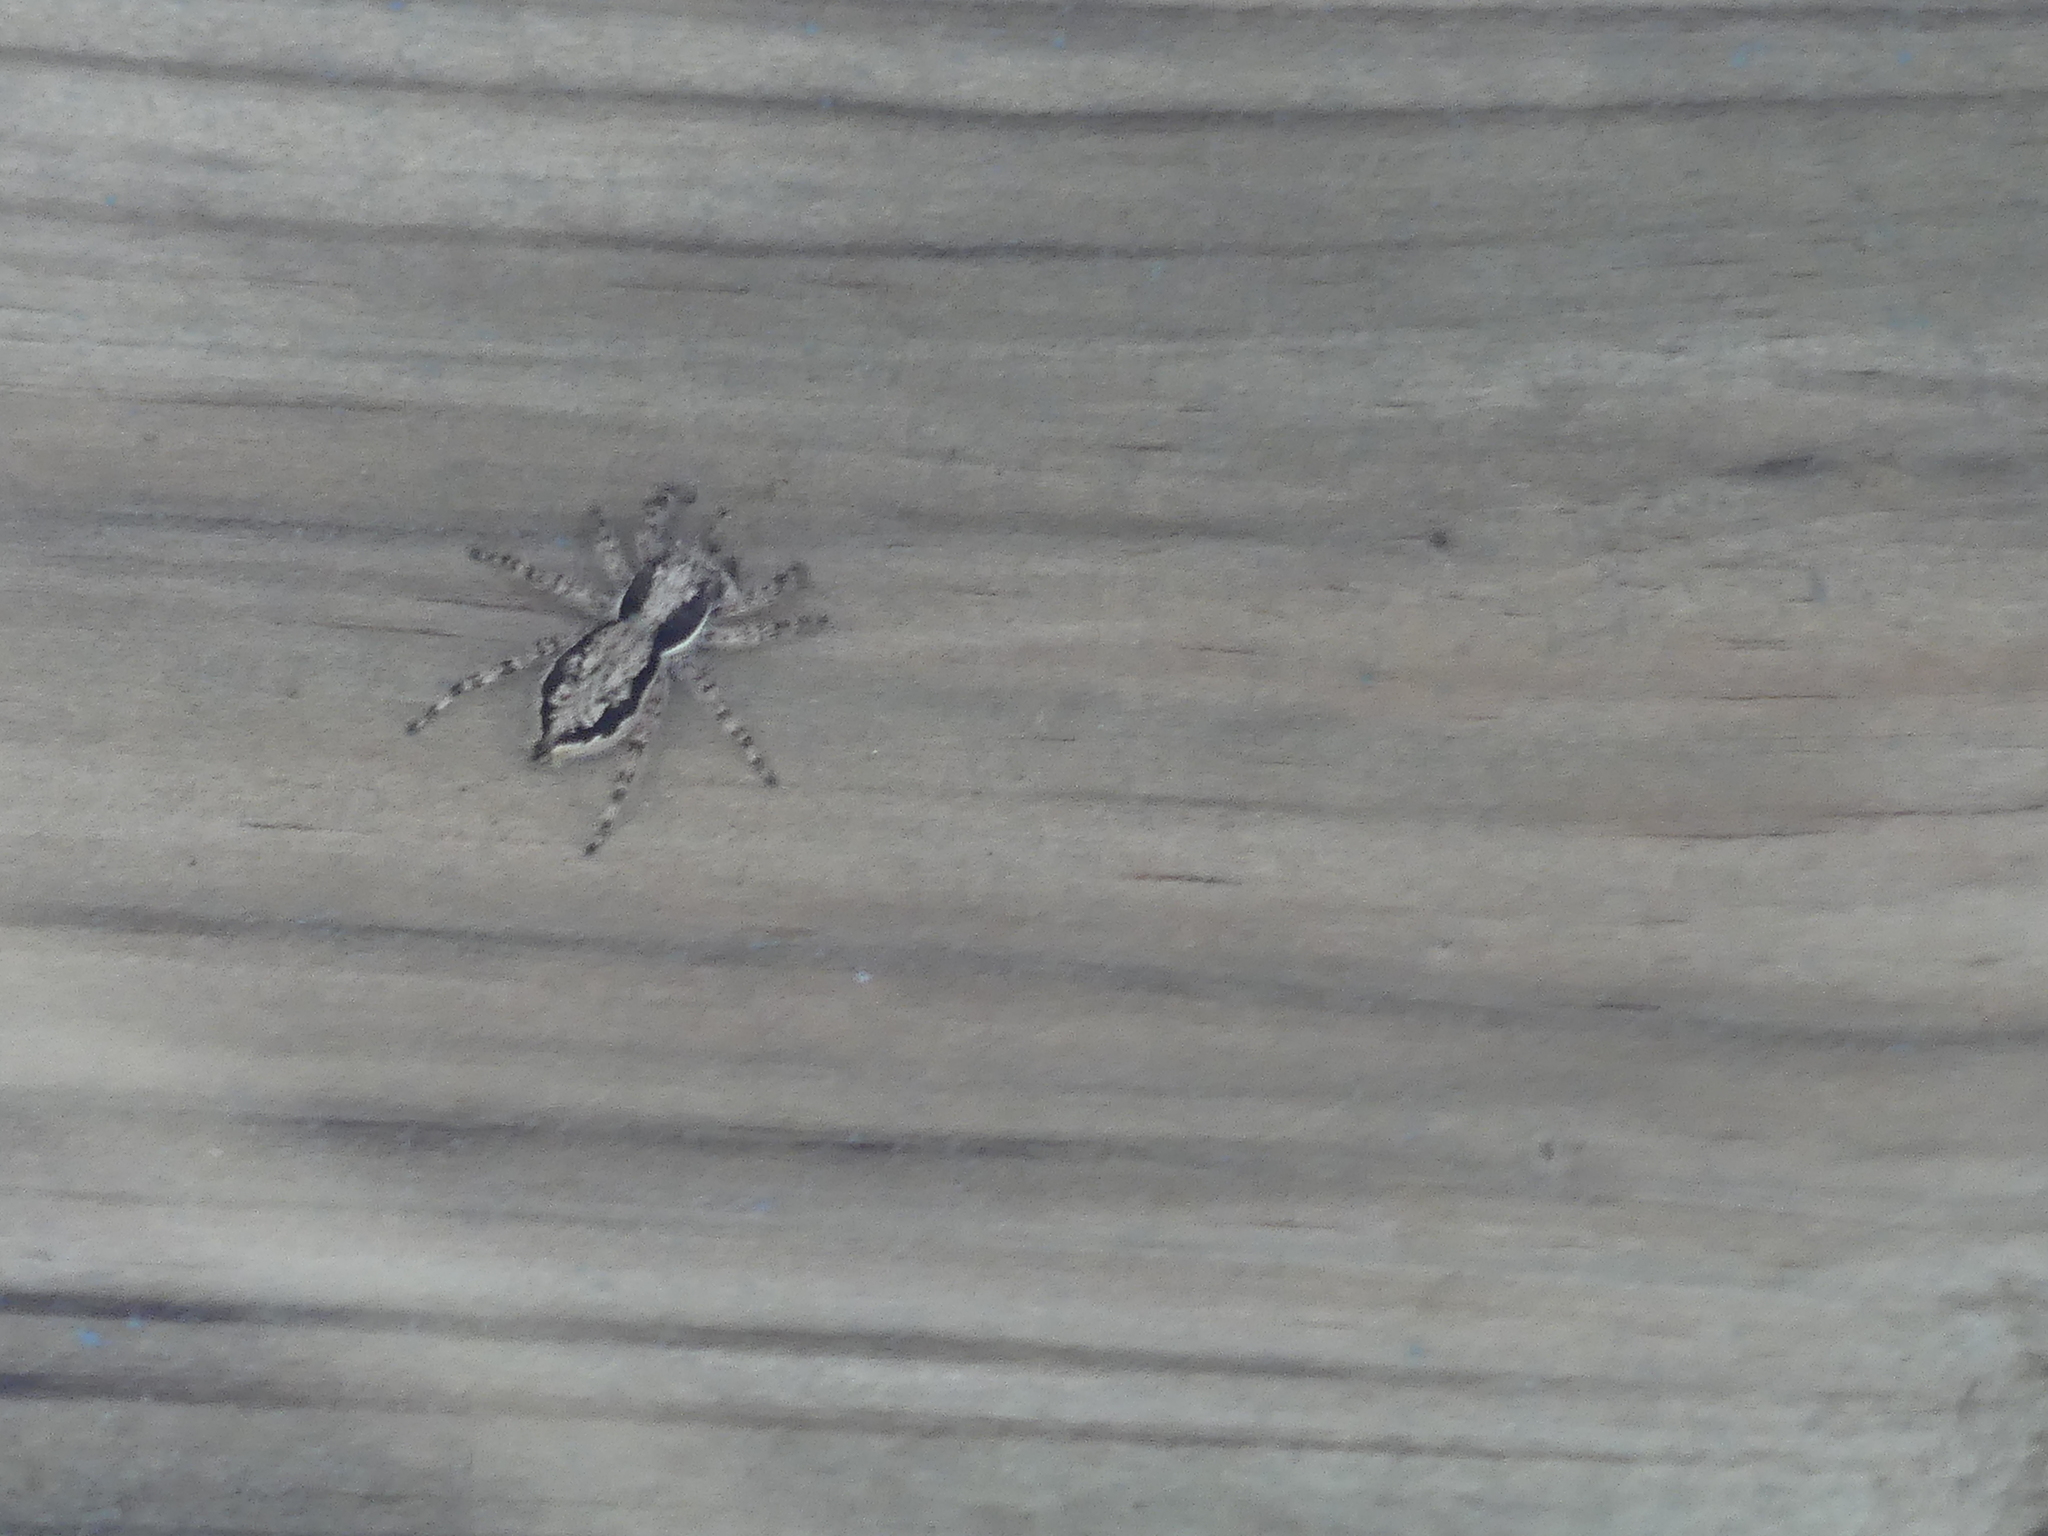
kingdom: Animalia
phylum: Arthropoda
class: Arachnida
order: Araneae
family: Salticidae
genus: Menemerus
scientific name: Menemerus bivittatus
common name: Gray wall jumper
